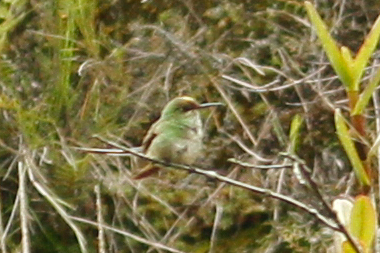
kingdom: Animalia
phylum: Chordata
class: Aves
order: Apodiformes
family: Trochilidae
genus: Lesbia
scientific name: Lesbia victoriae
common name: Black-tailed trainbearer
